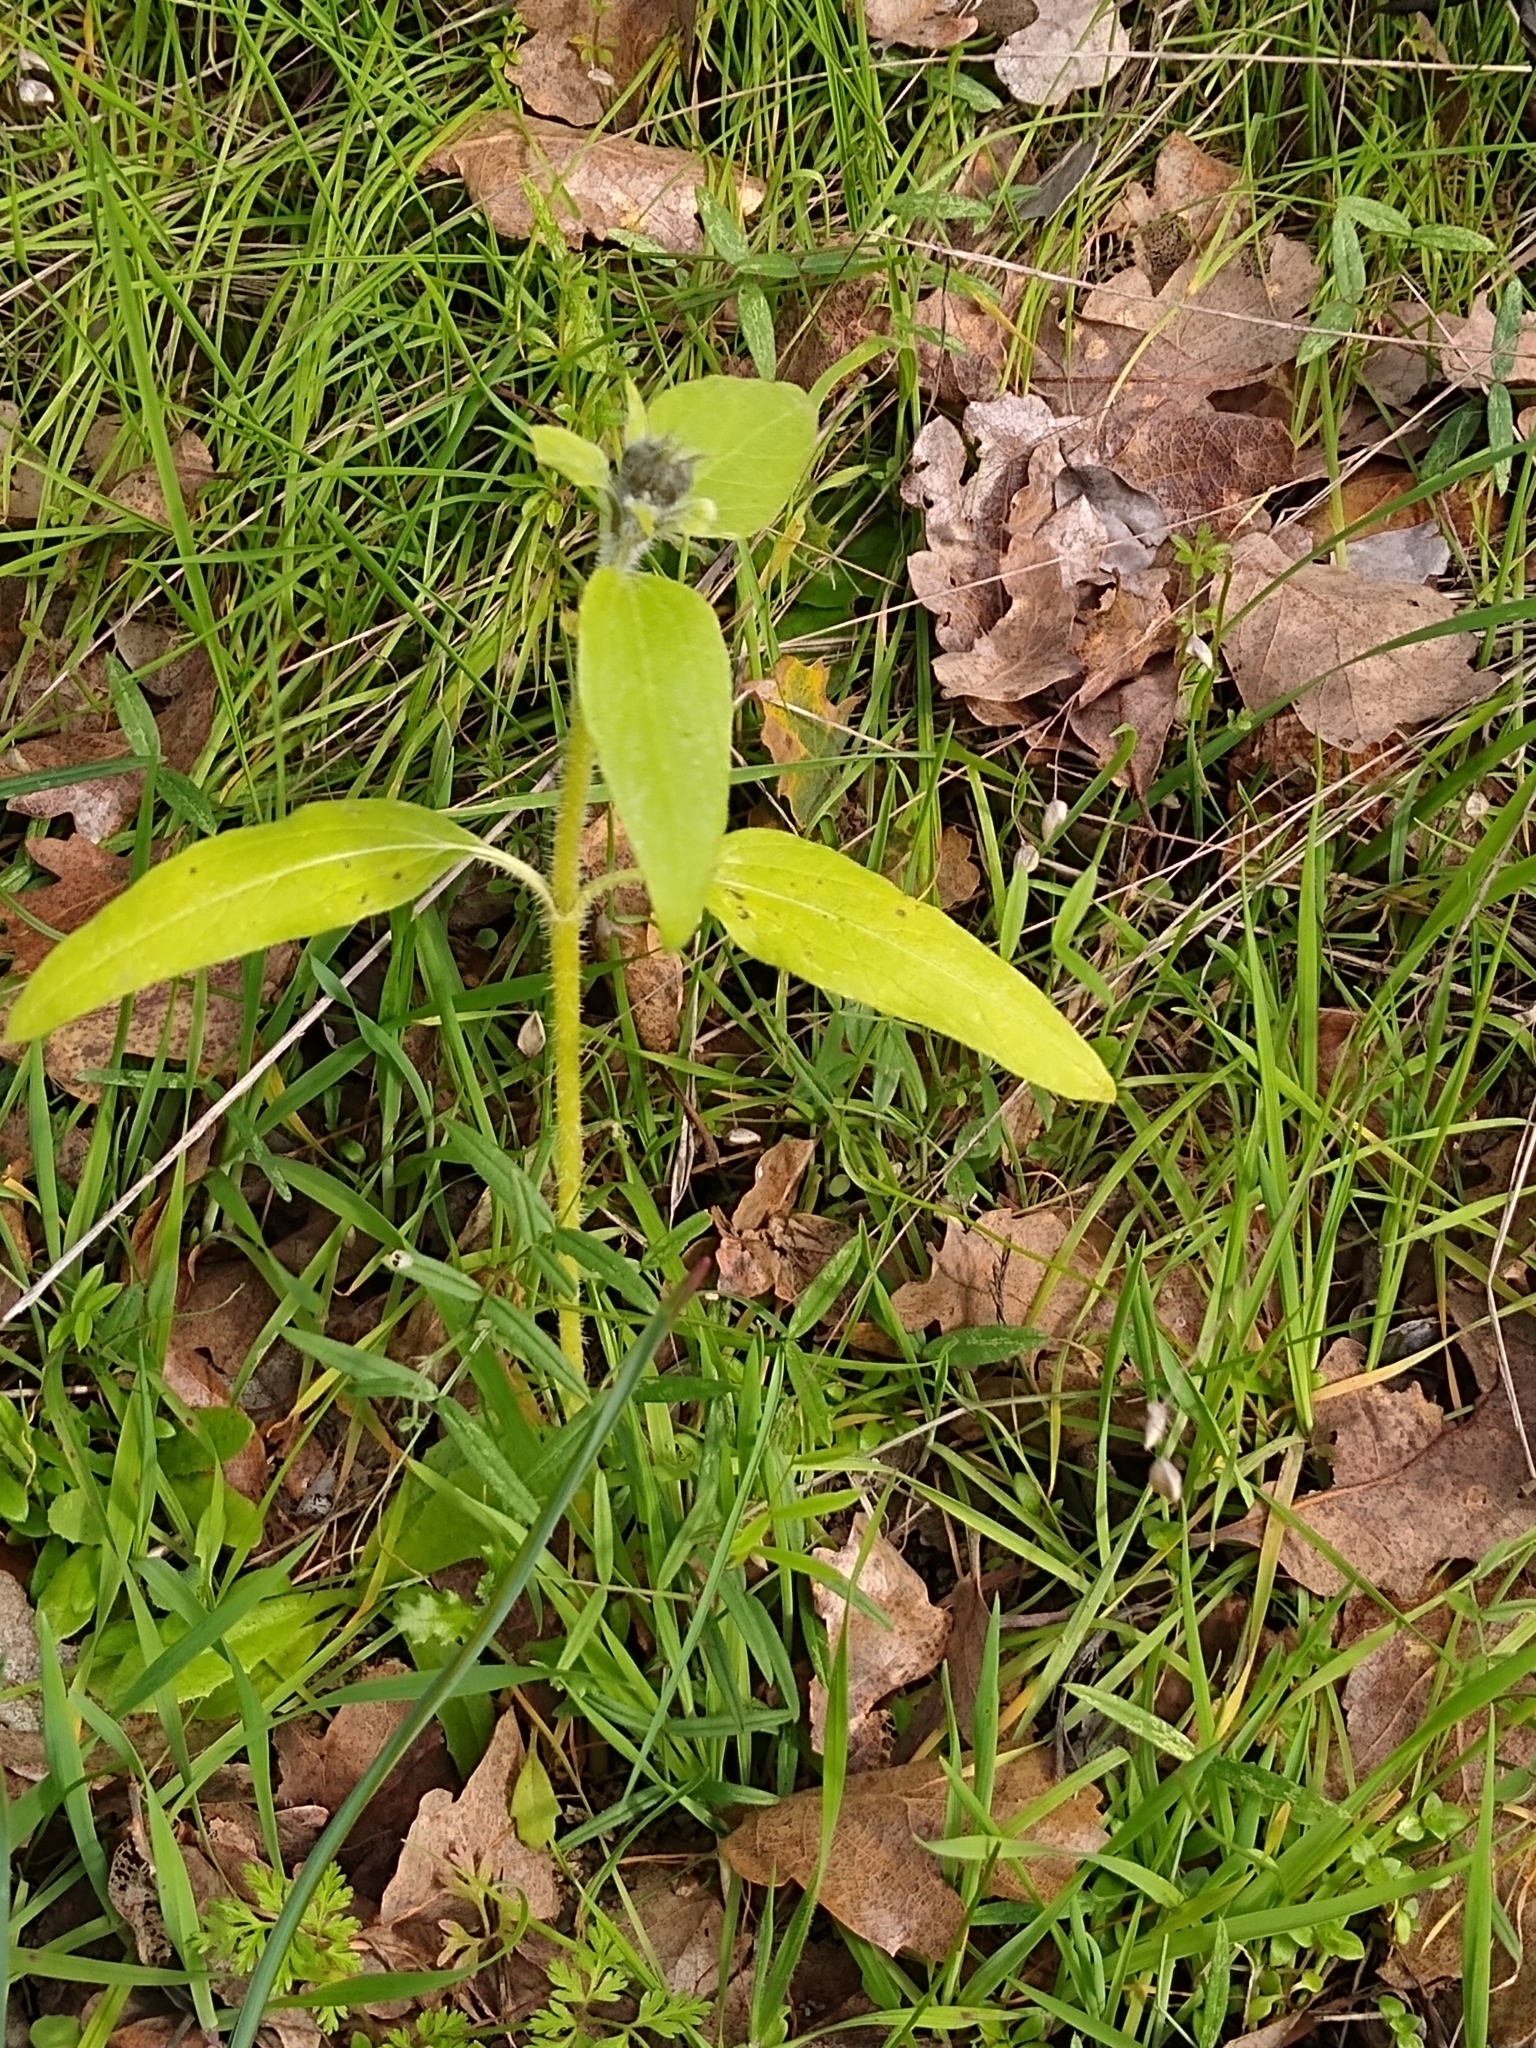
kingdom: Plantae
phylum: Tracheophyta
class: Magnoliopsida
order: Asterales
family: Asteraceae
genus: Helianthus
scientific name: Helianthus annuus
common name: Sunflower
